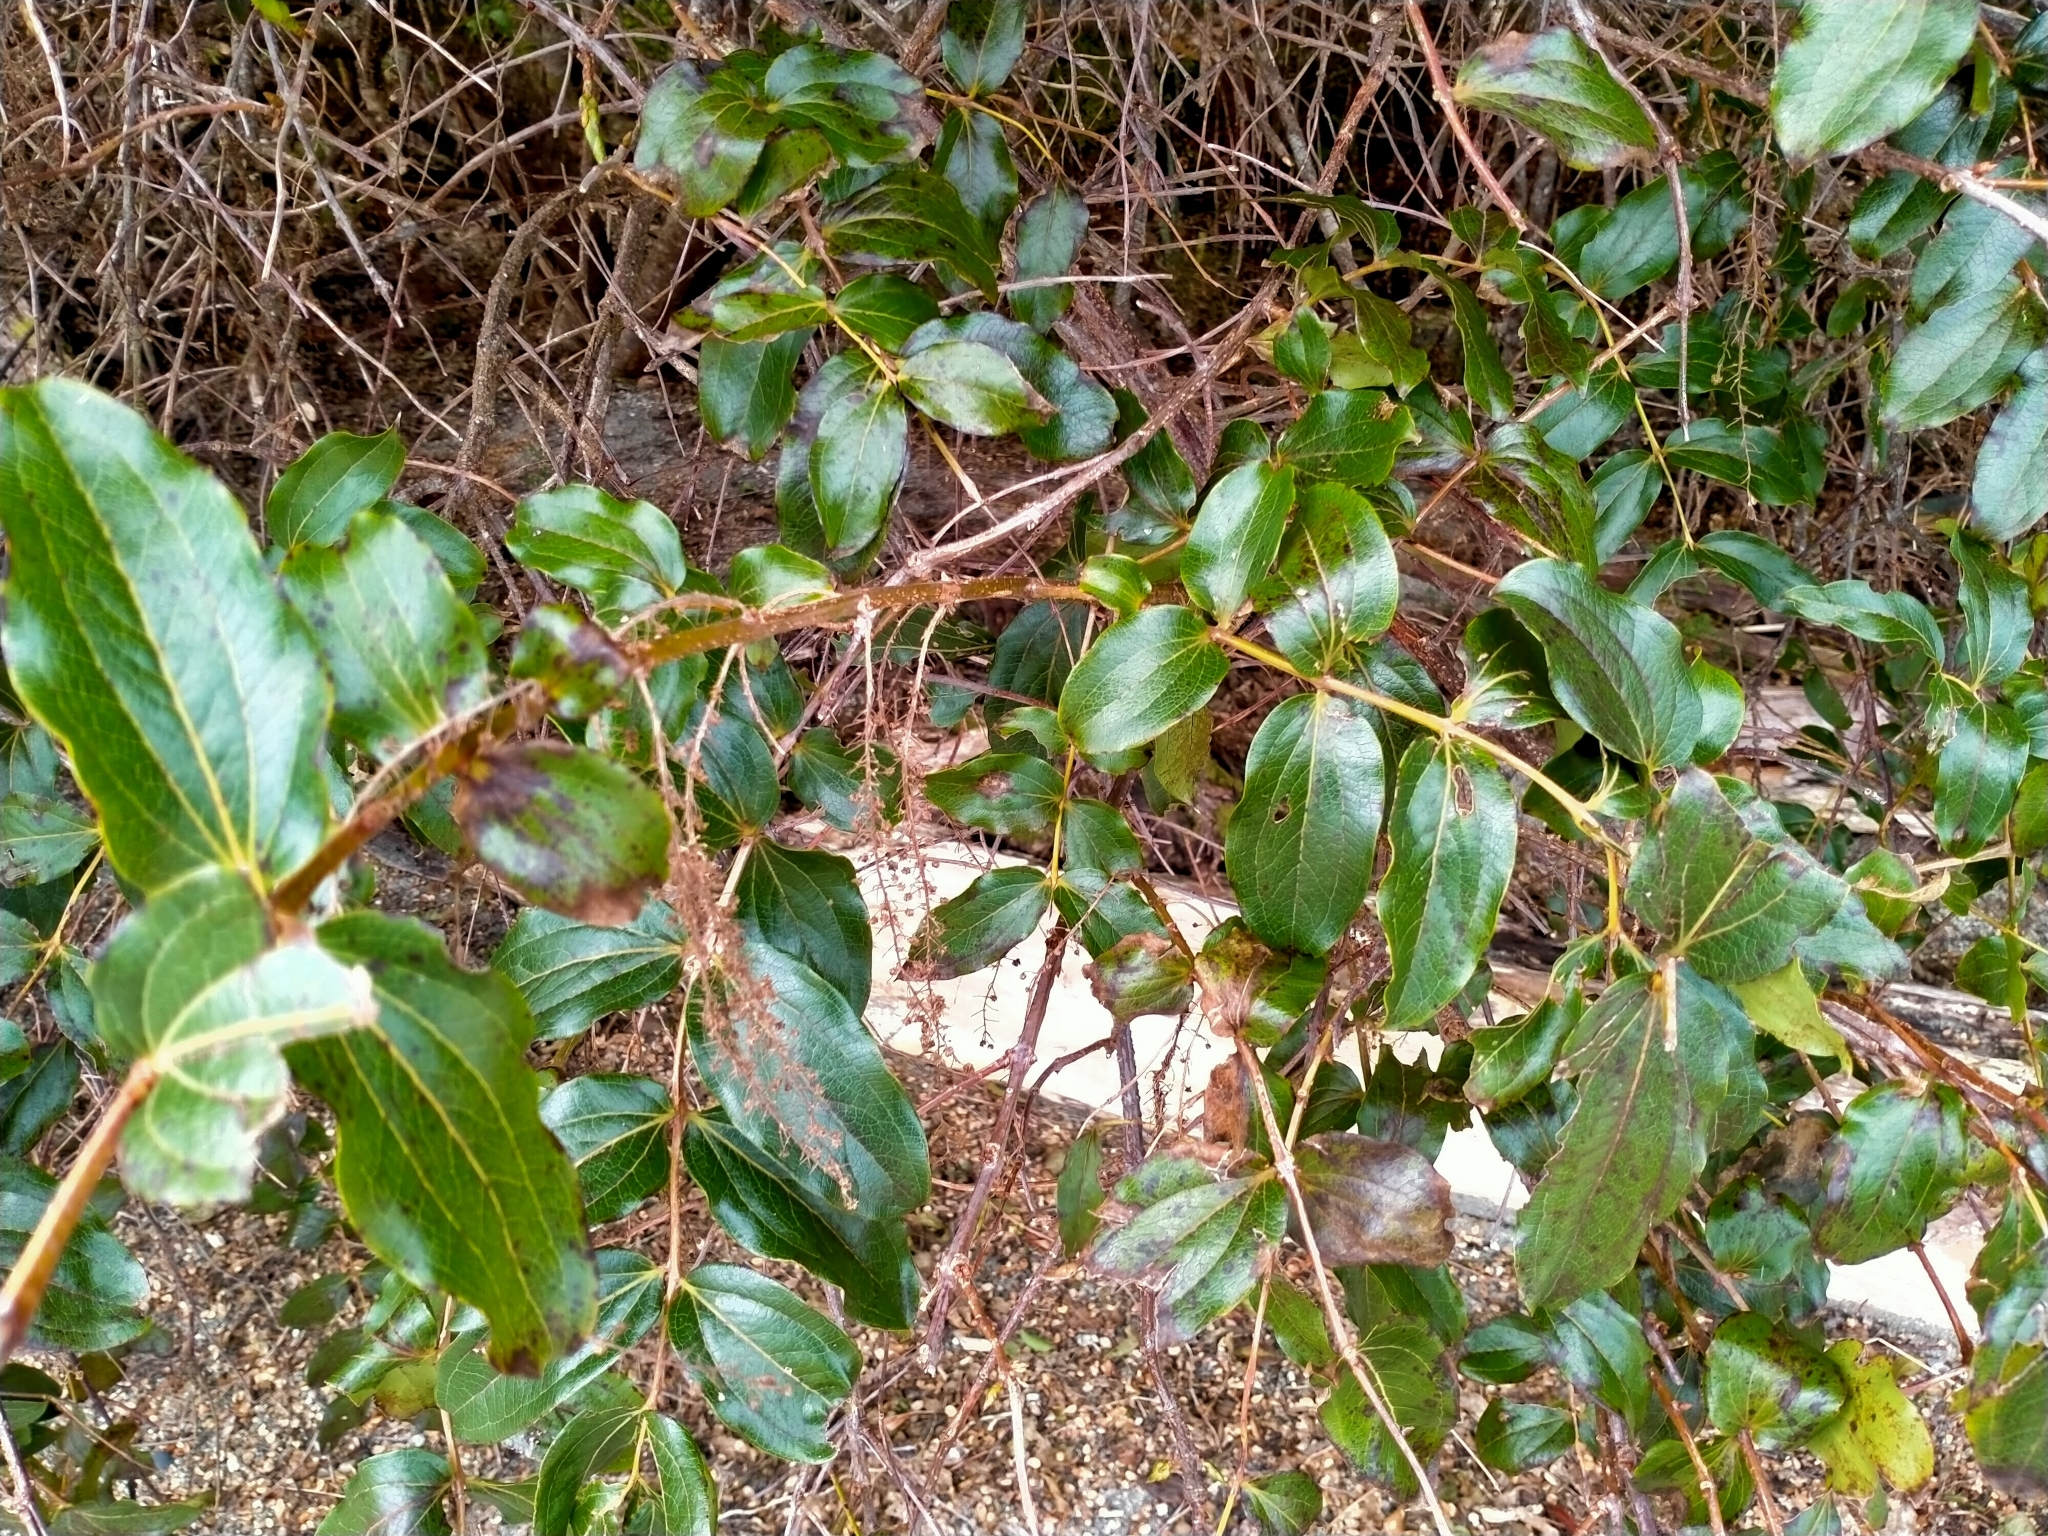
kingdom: Plantae
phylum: Tracheophyta
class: Magnoliopsida
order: Cucurbitales
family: Coriariaceae
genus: Coriaria
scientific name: Coriaria arborea
